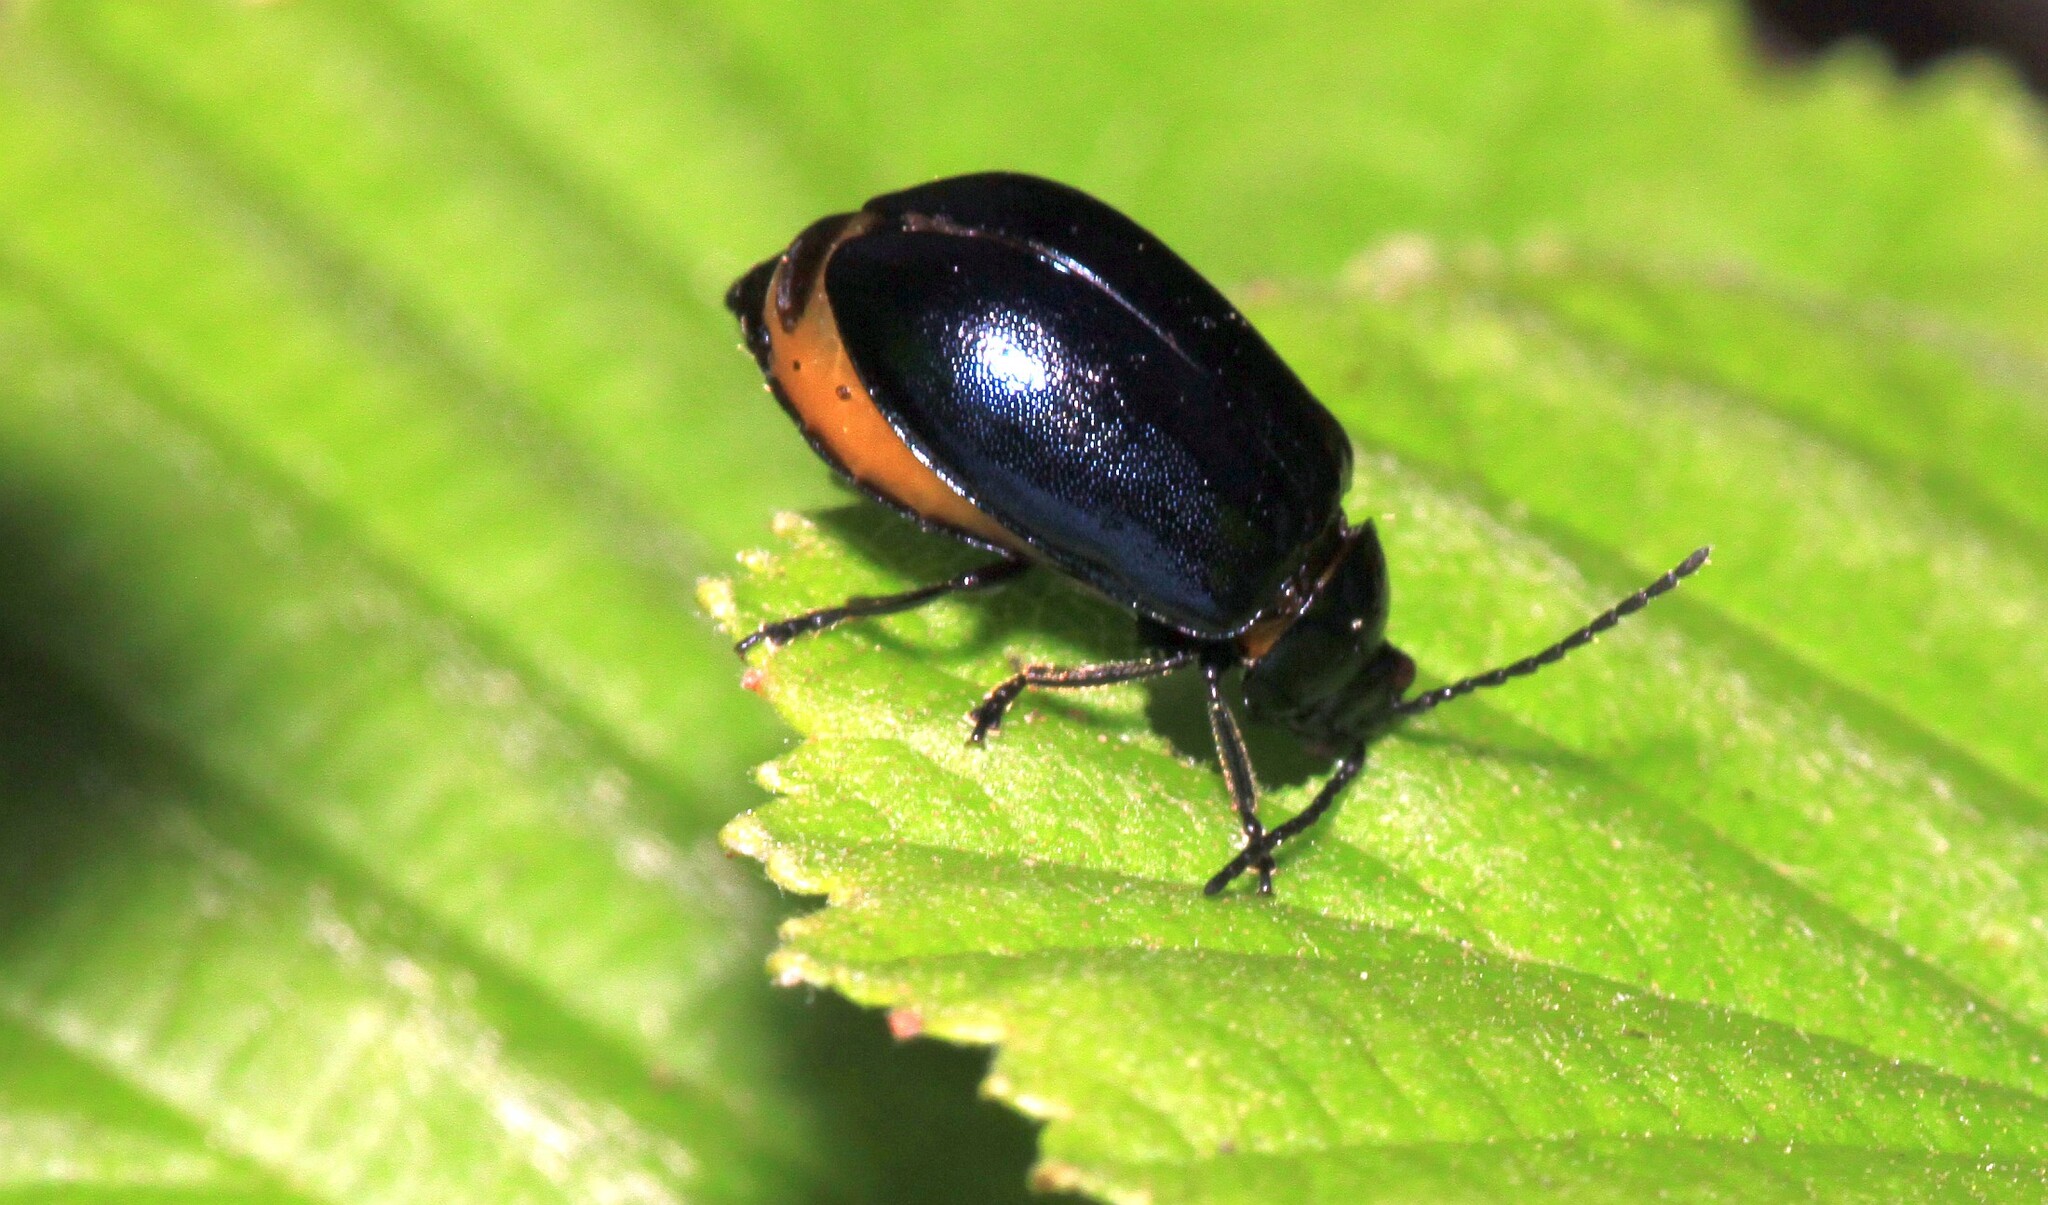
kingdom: Animalia
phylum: Arthropoda
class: Insecta
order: Coleoptera
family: Chrysomelidae
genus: Agelastica
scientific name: Agelastica alni
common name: Alder leaf beetle
